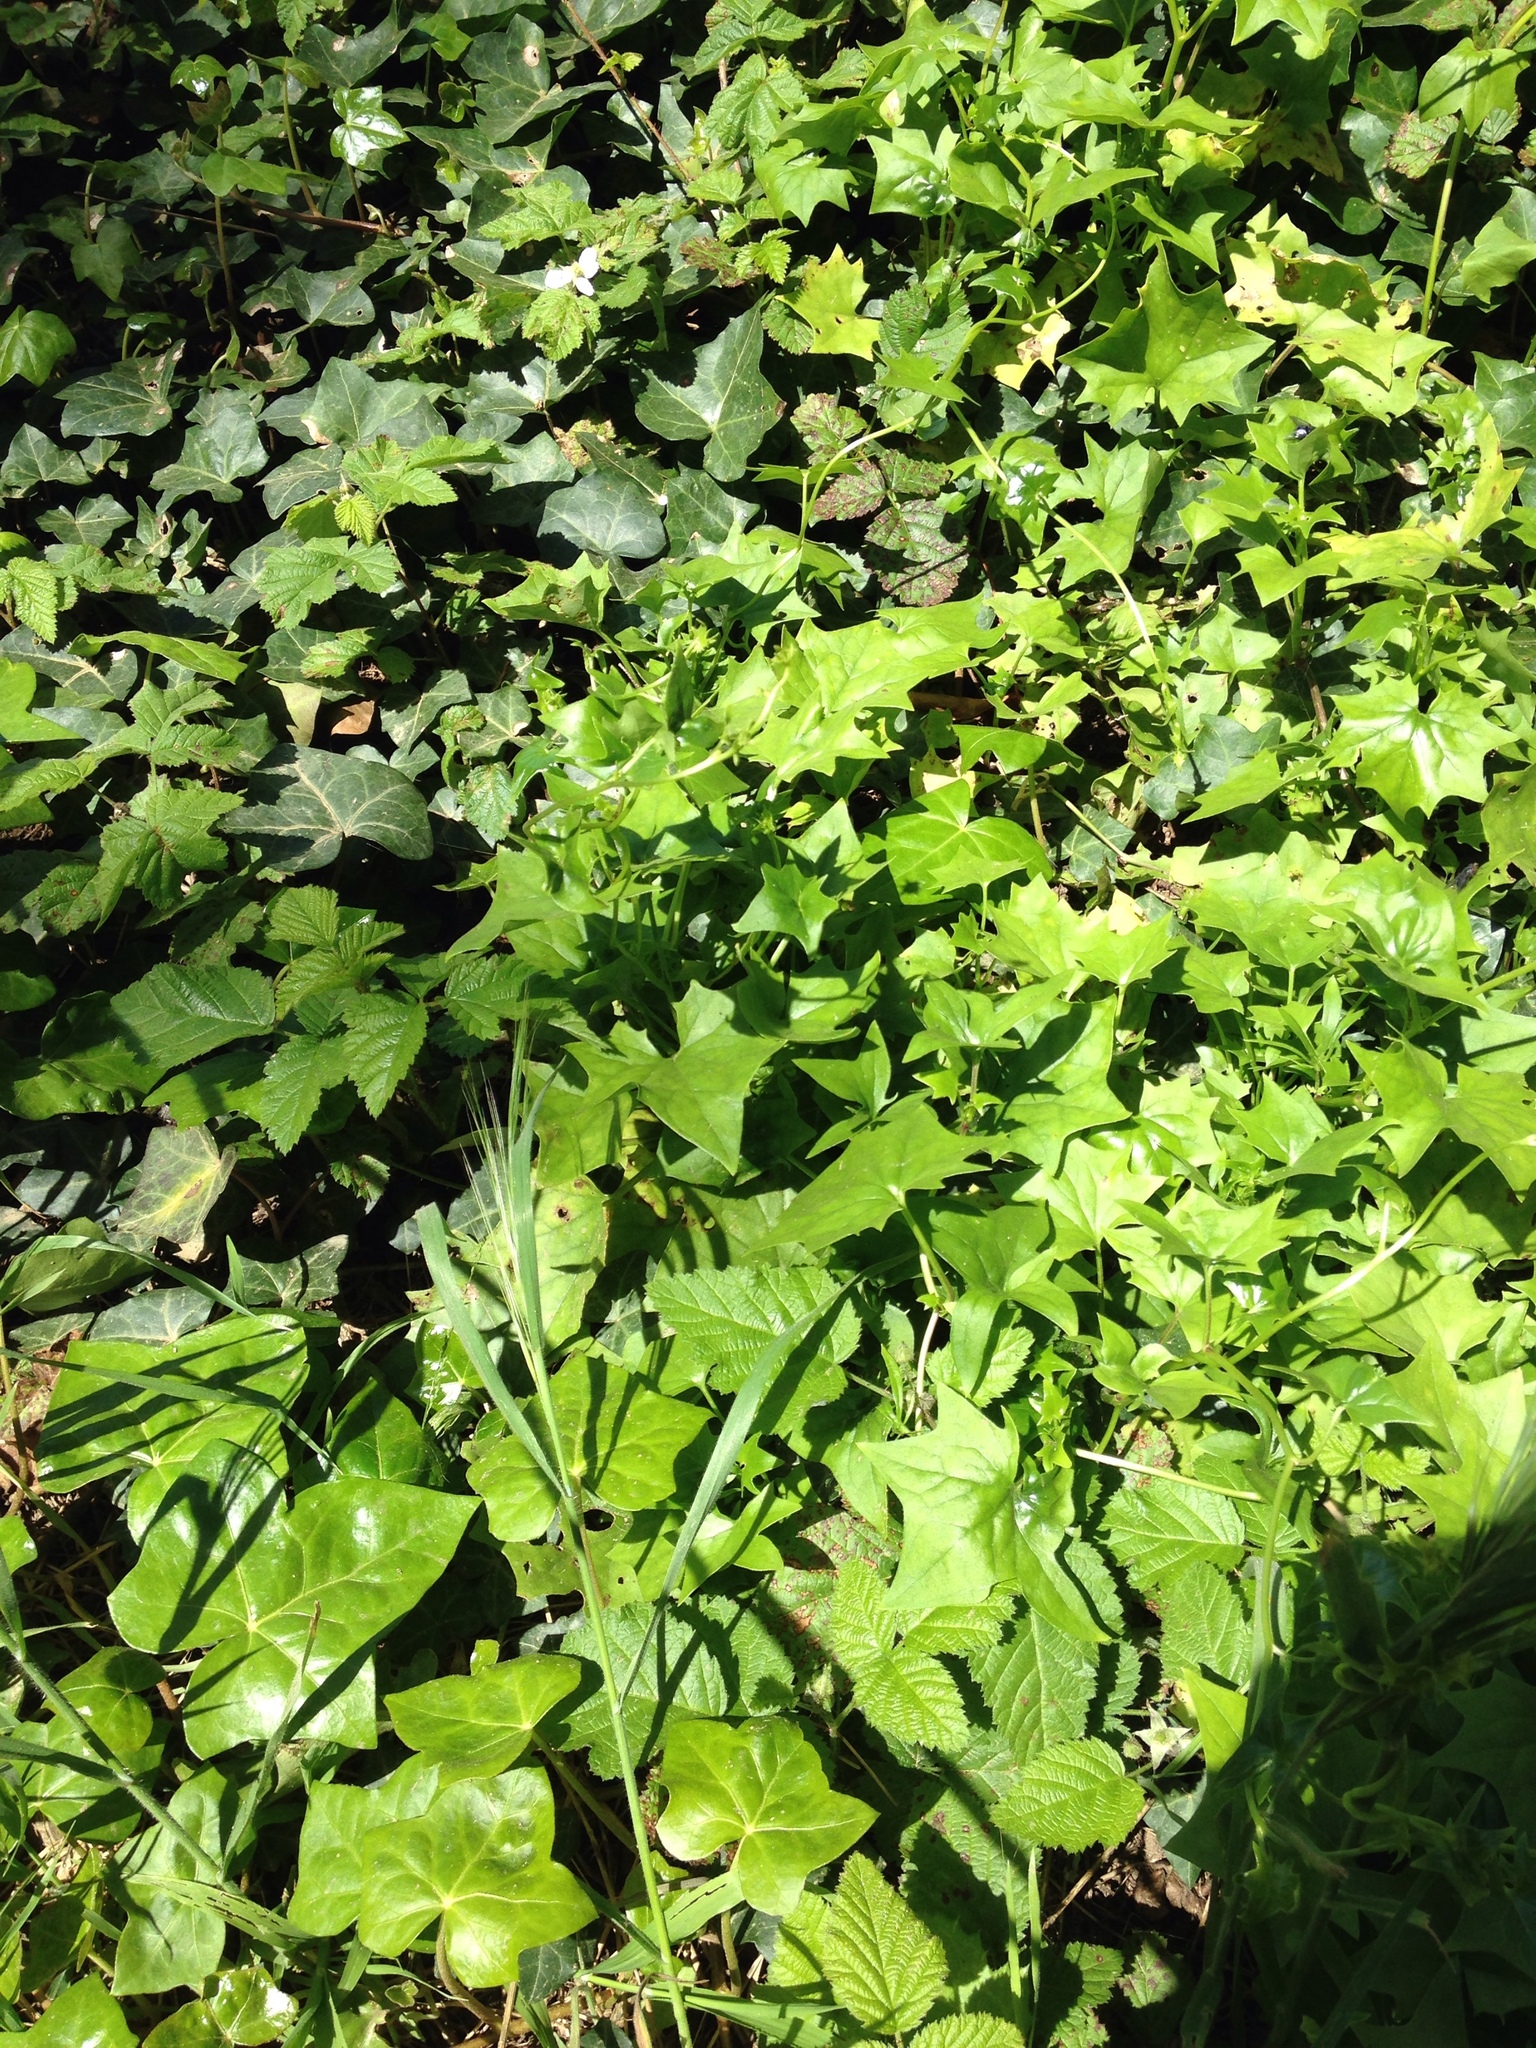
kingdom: Plantae
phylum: Tracheophyta
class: Magnoliopsida
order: Asterales
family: Asteraceae
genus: Delairea
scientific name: Delairea odorata
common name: Cape-ivy
